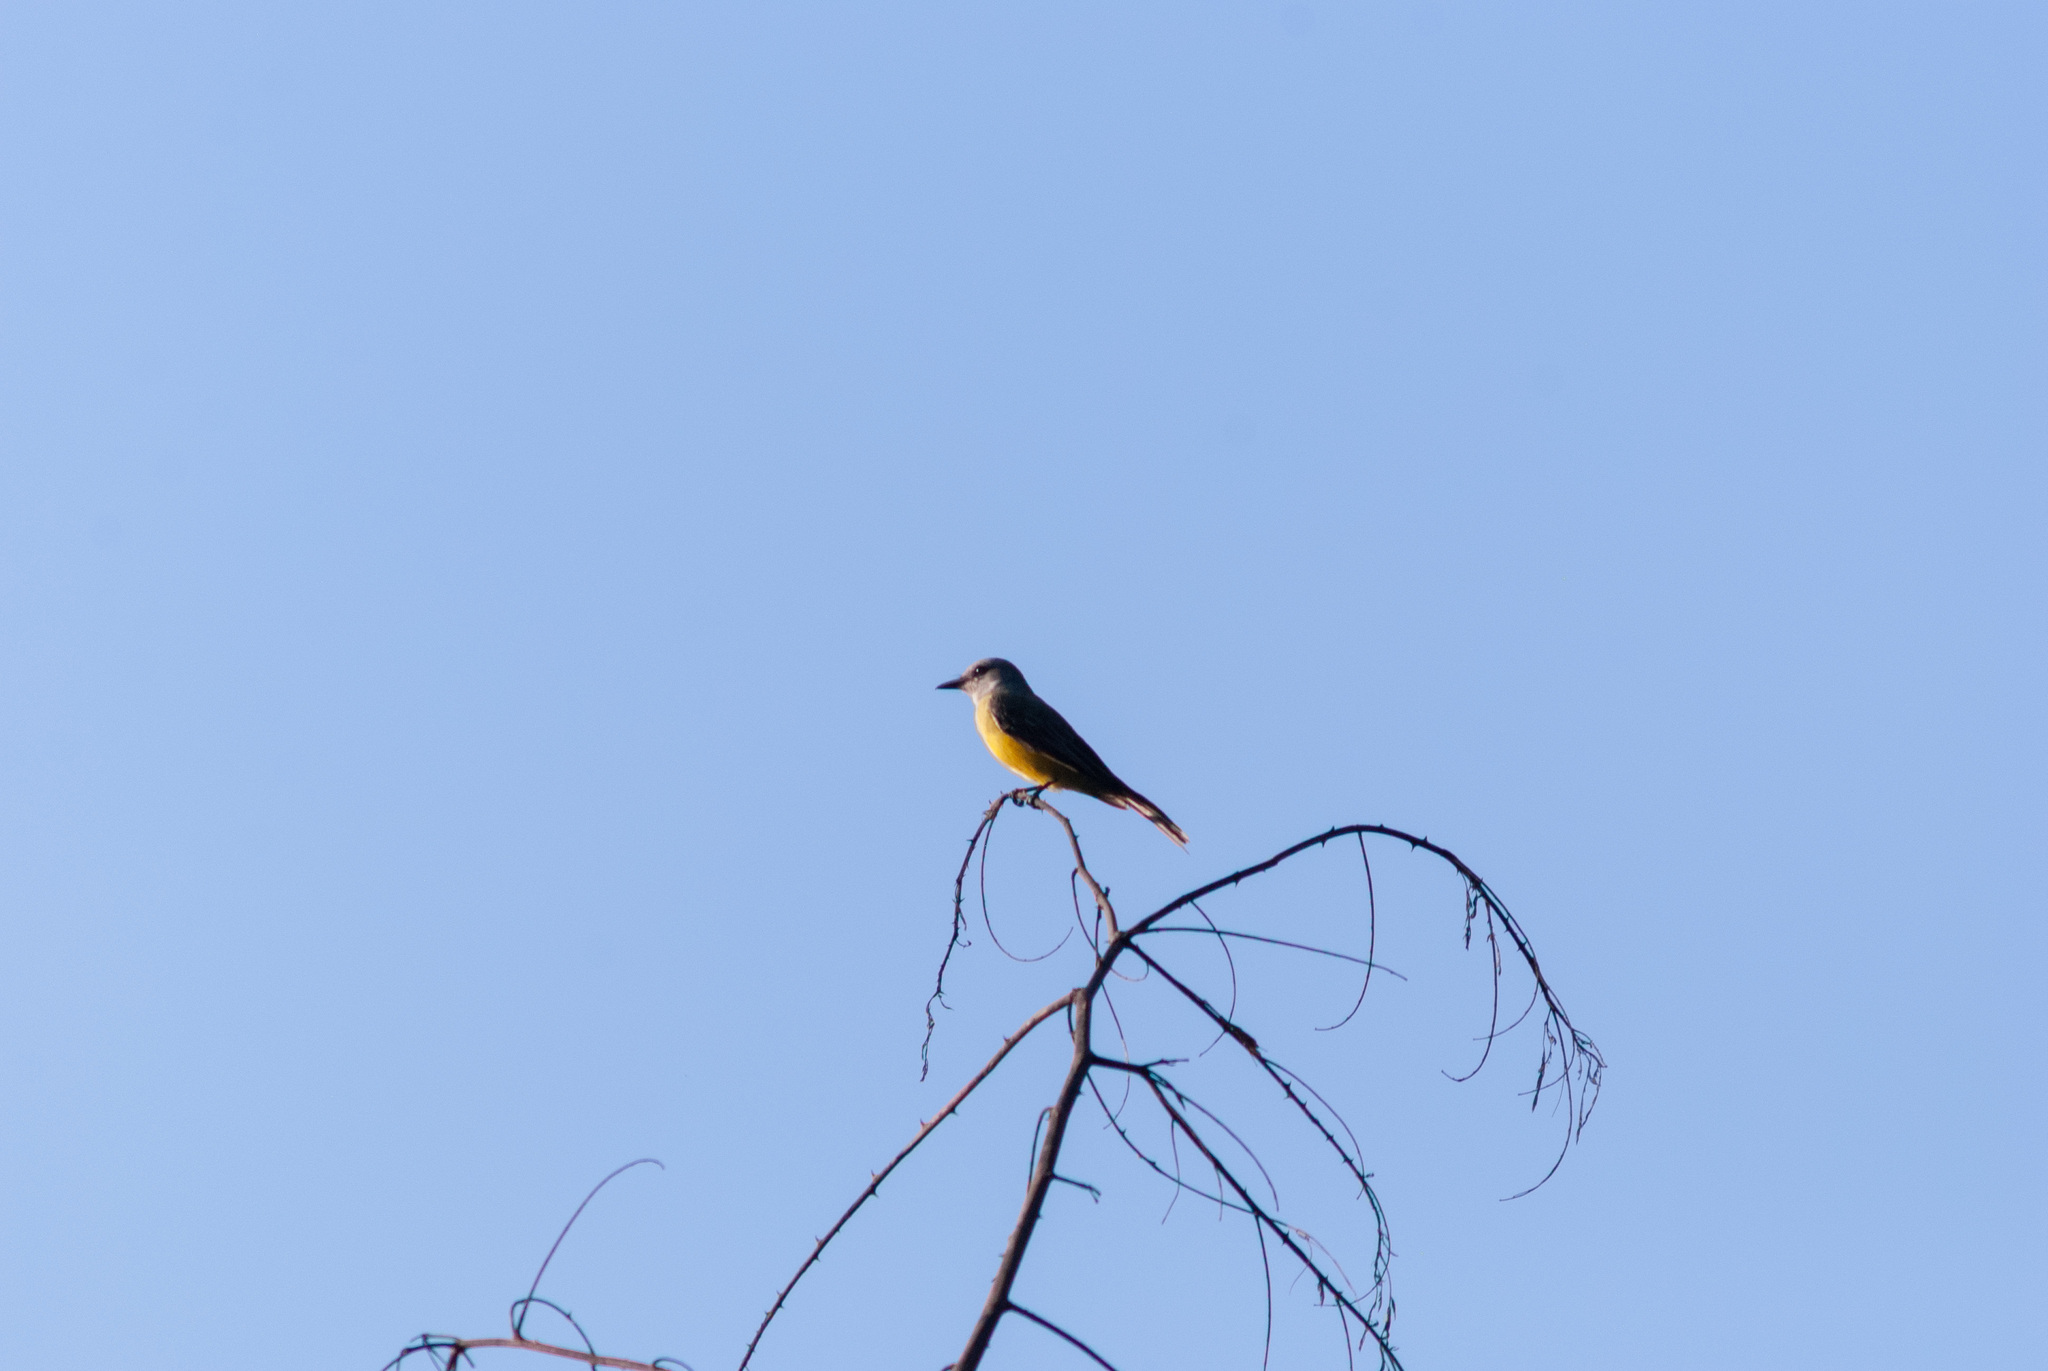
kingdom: Animalia
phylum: Chordata
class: Aves
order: Passeriformes
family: Tyrannidae
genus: Tyrannus
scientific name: Tyrannus melancholicus
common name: Tropical kingbird
